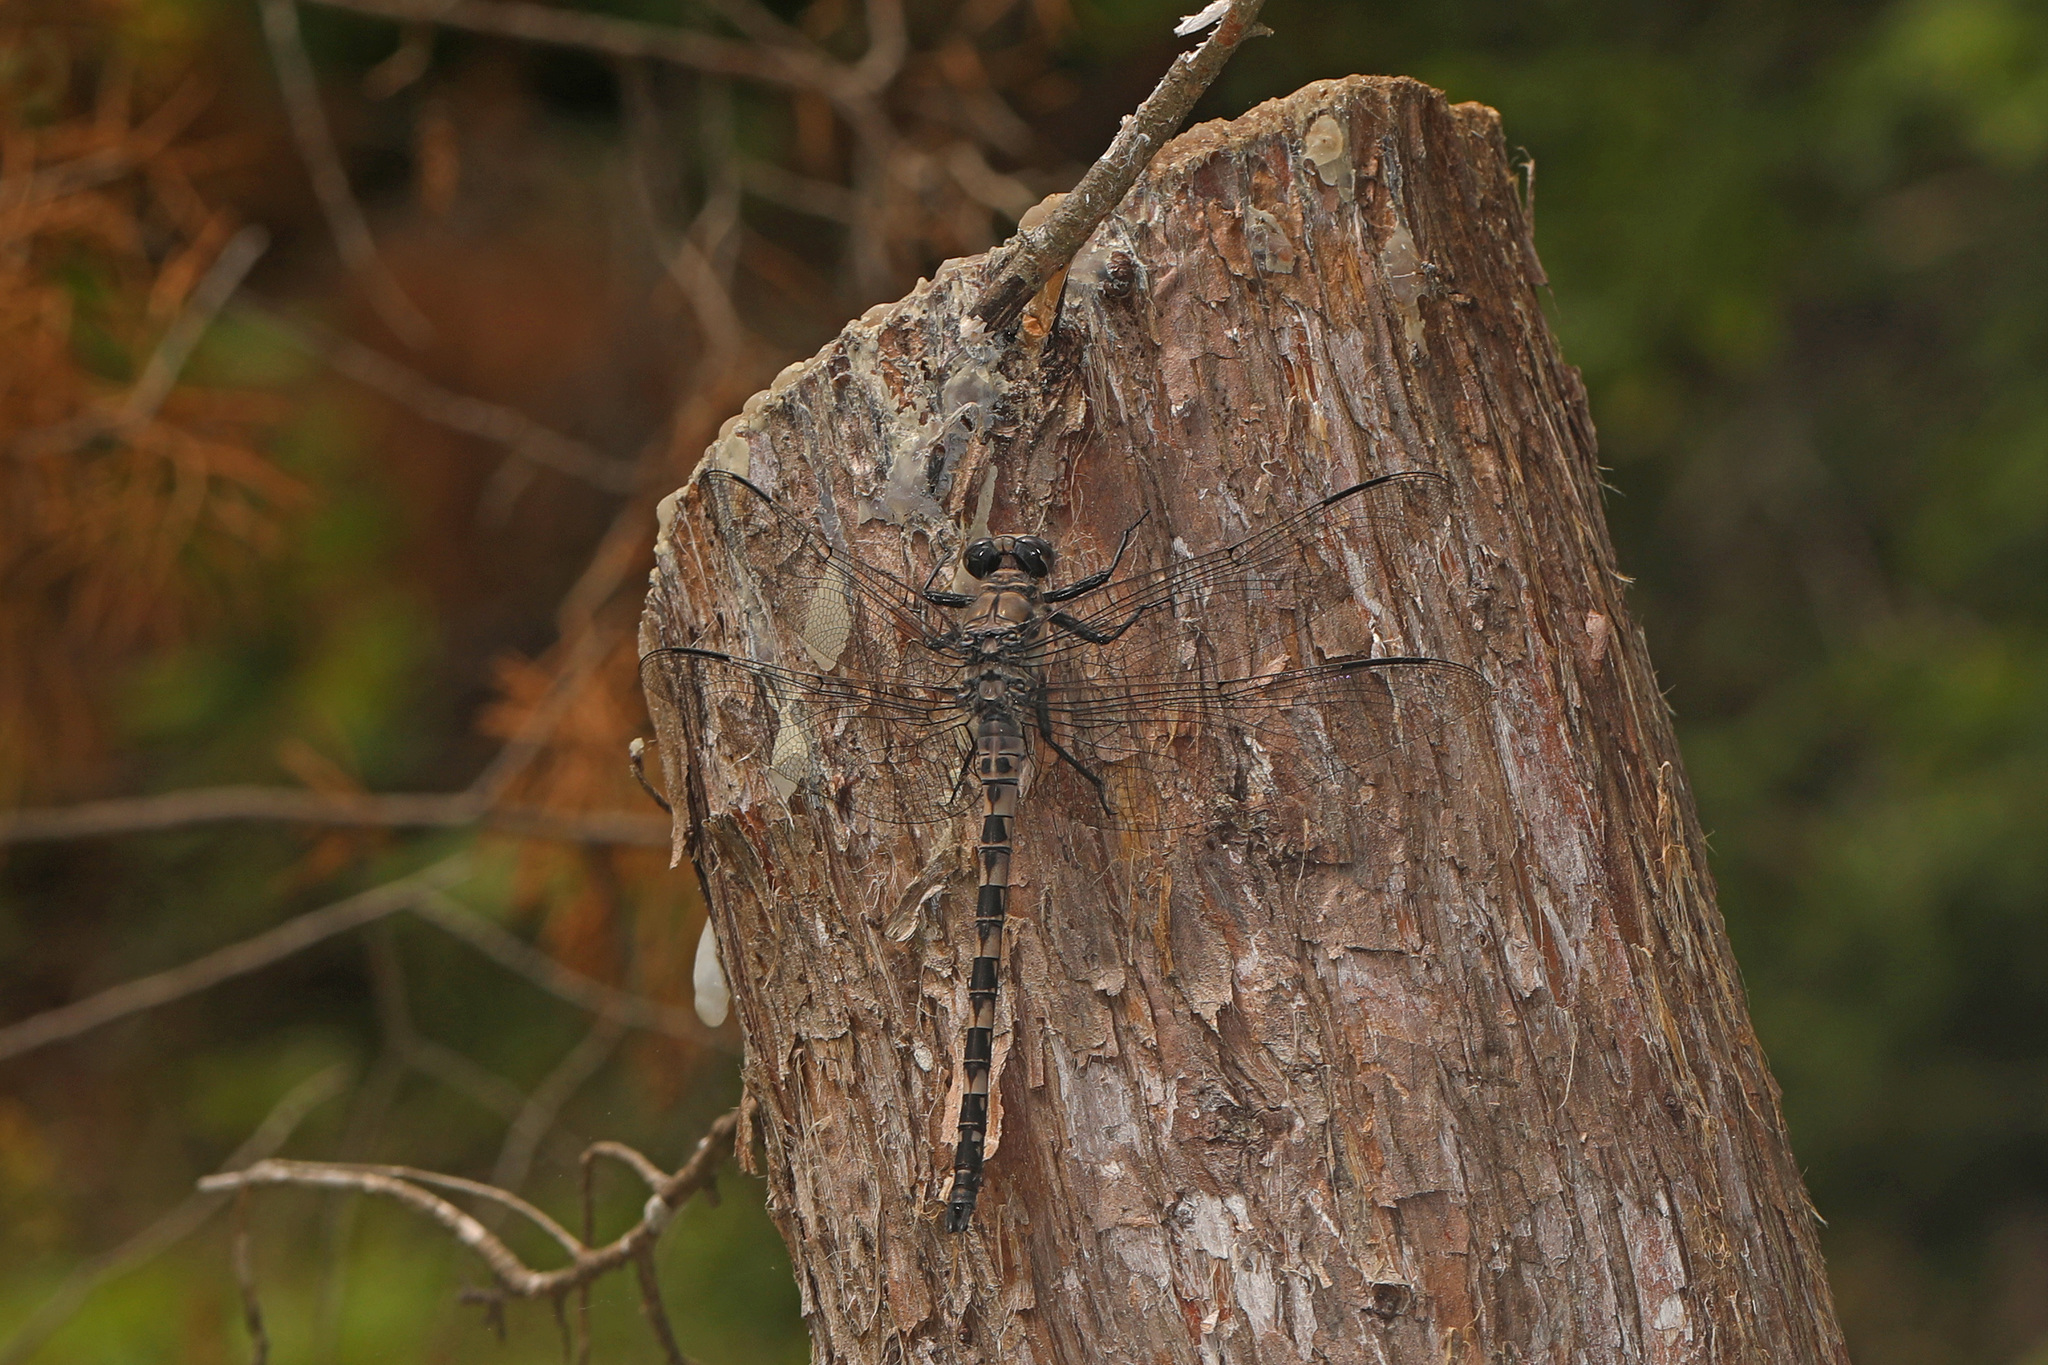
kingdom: Animalia
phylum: Arthropoda
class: Insecta
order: Odonata
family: Petaluridae
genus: Tachopteryx
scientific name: Tachopteryx thoreyi
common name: Gray petaltail
